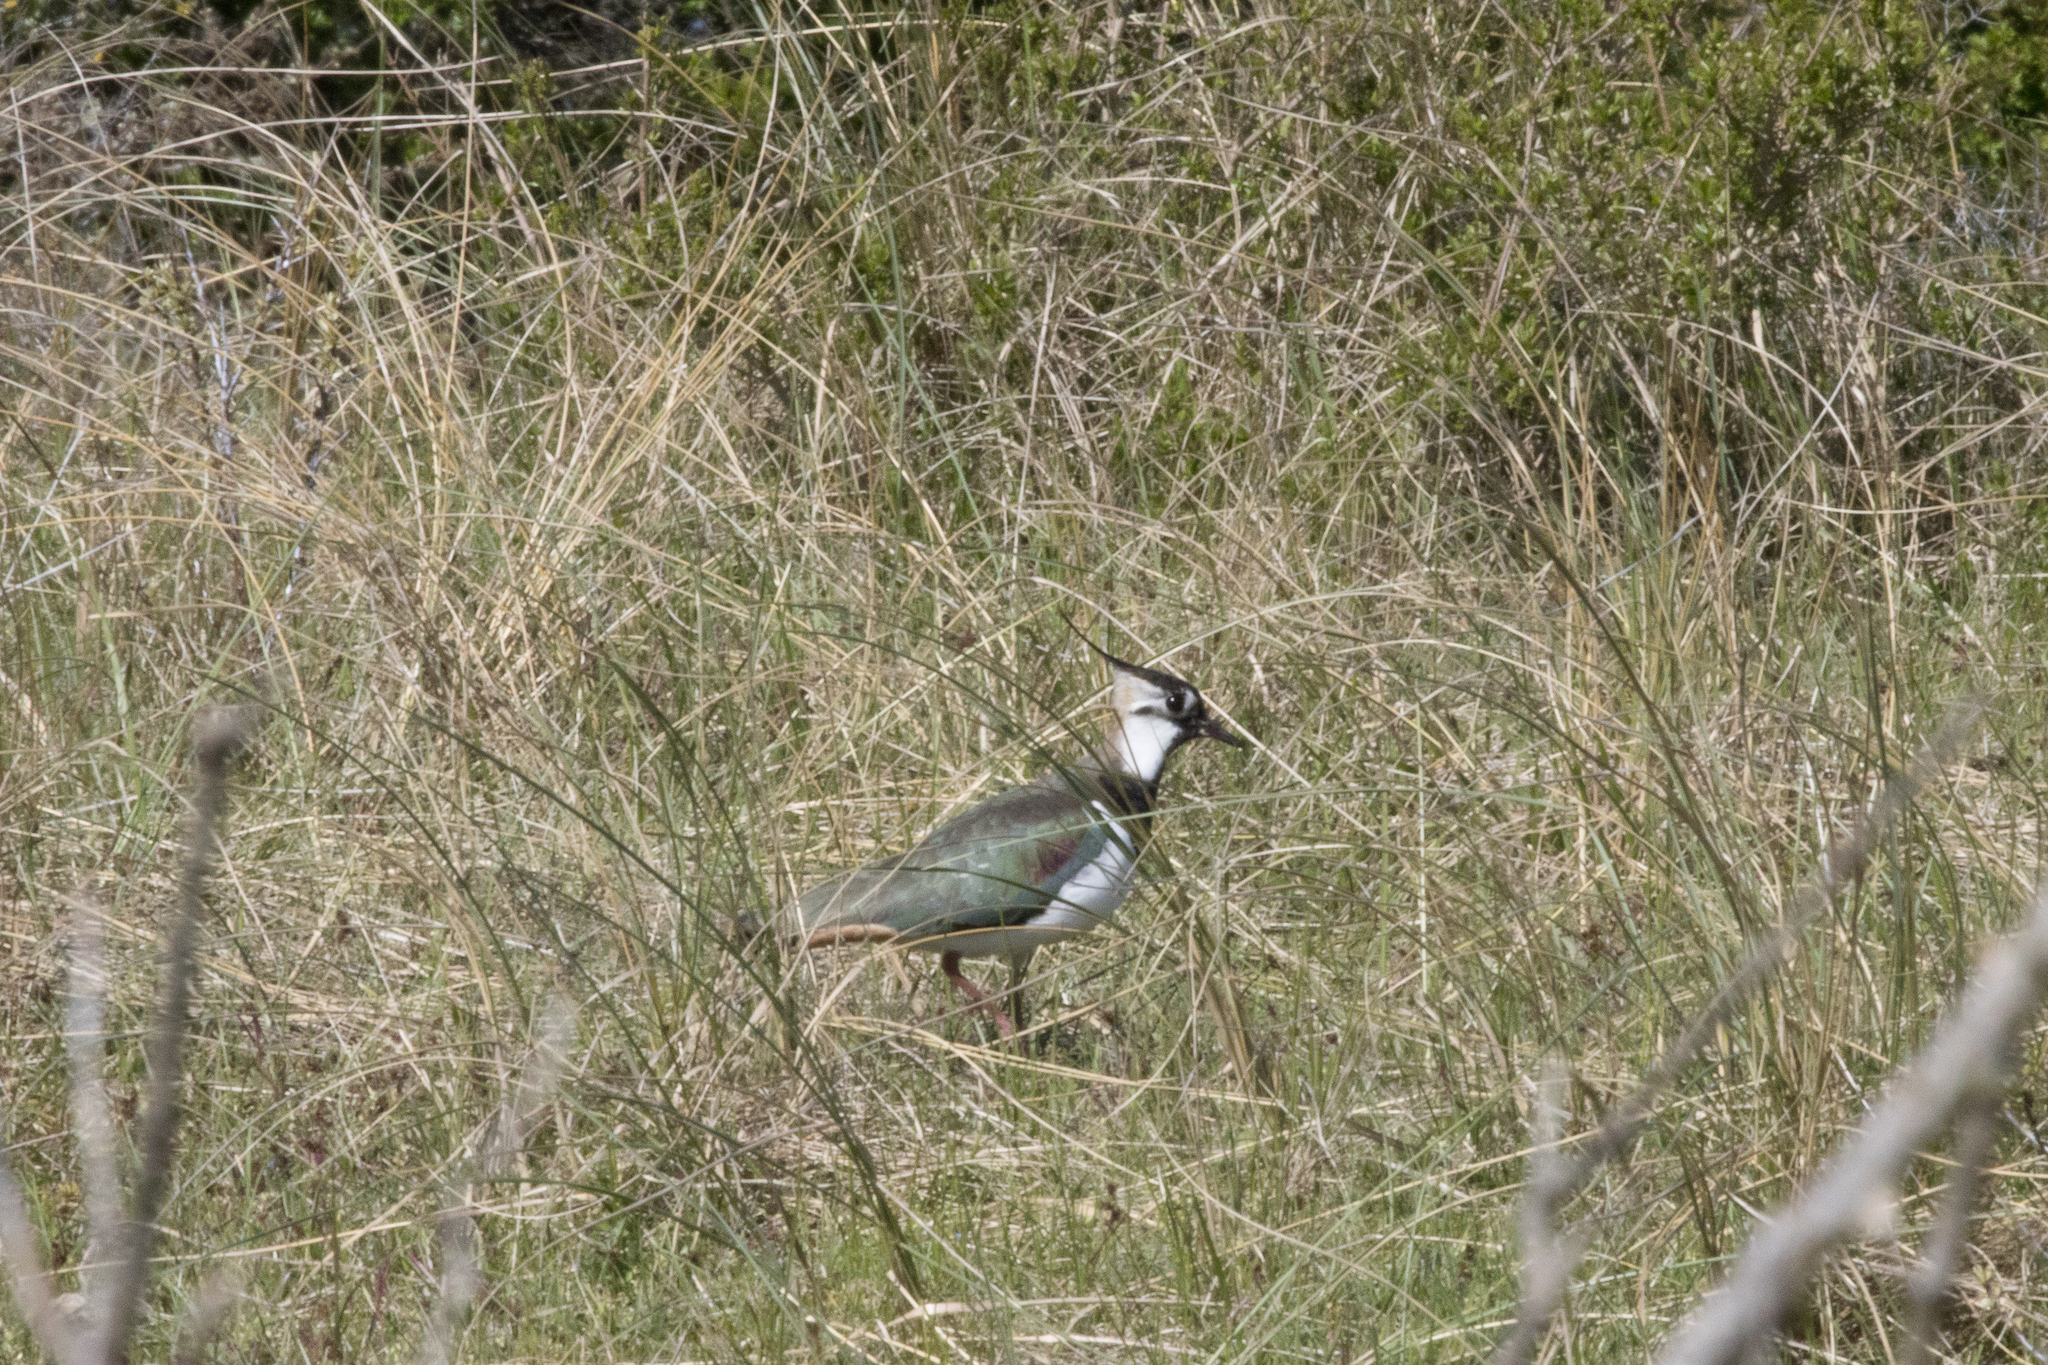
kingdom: Animalia
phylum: Chordata
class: Aves
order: Charadriiformes
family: Charadriidae
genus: Vanellus
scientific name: Vanellus vanellus
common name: Northern lapwing
